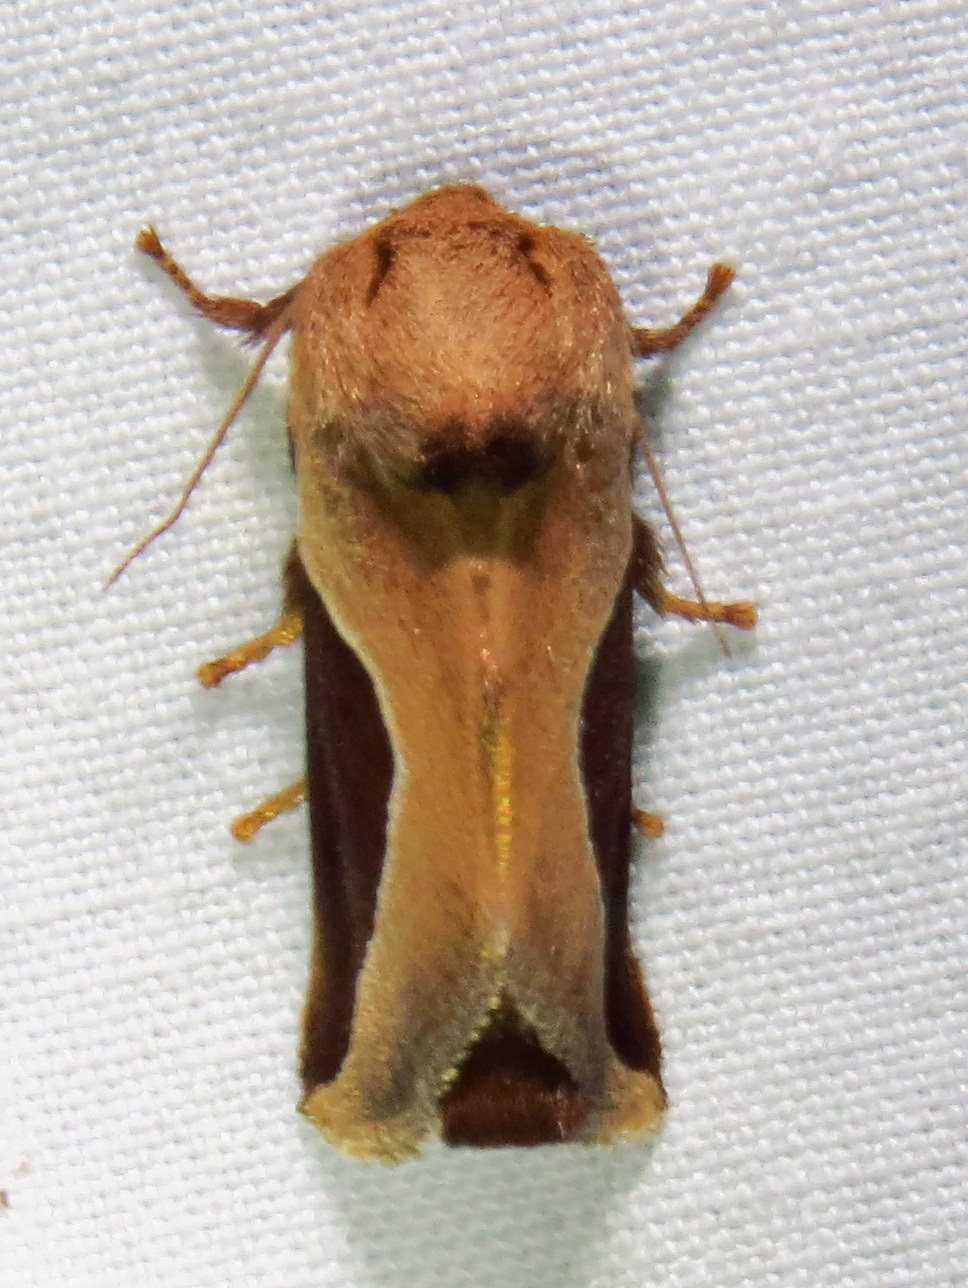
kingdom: Animalia
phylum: Arthropoda
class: Insecta
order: Lepidoptera
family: Limacodidae
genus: Prolimacodes
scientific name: Prolimacodes badia
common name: Skiff moth
